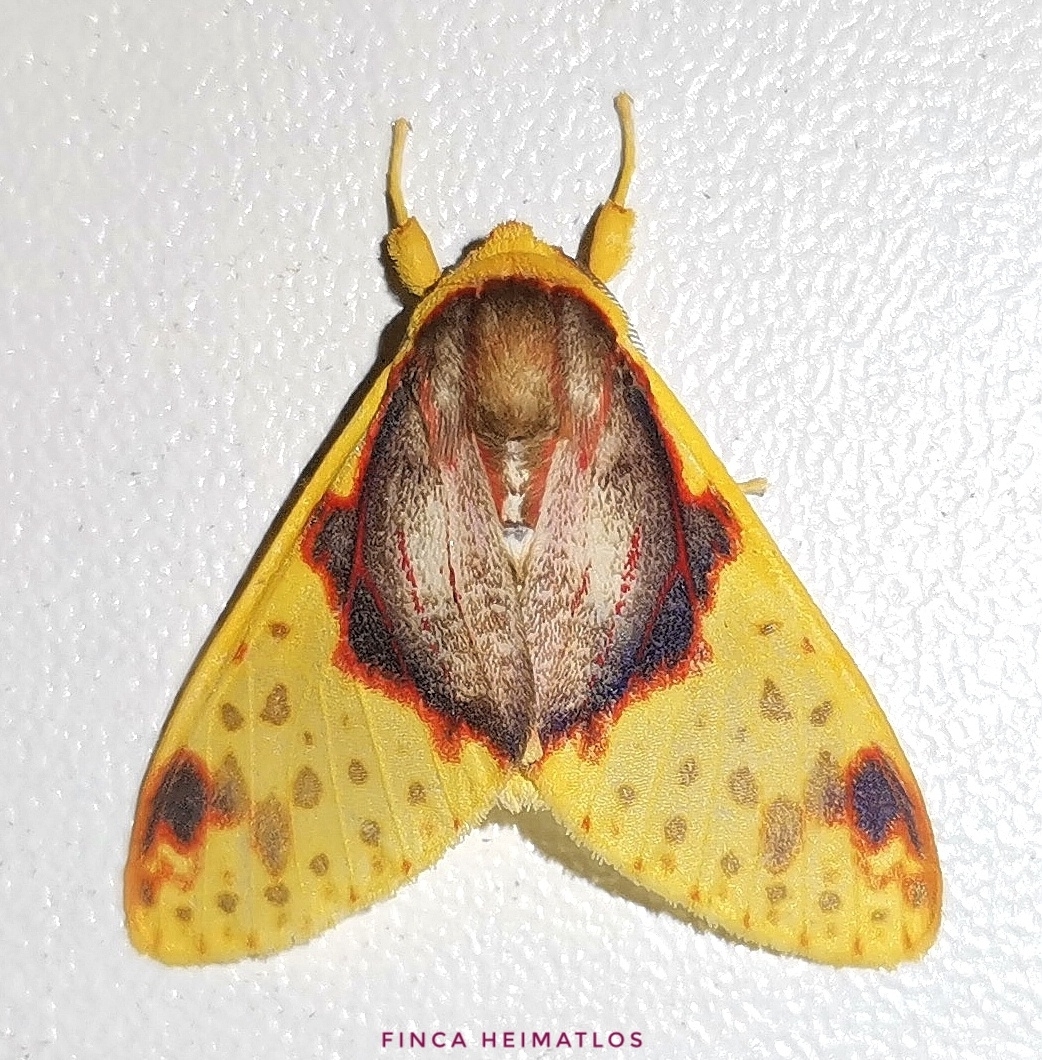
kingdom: Animalia
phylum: Arthropoda
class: Insecta
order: Lepidoptera
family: Erebidae
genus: Amaxia
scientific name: Amaxia flavicollis
